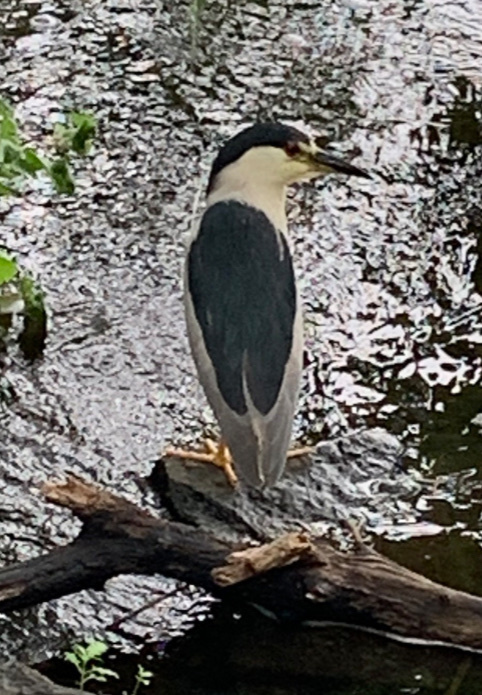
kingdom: Animalia
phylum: Chordata
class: Aves
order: Pelecaniformes
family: Ardeidae
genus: Nycticorax
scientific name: Nycticorax nycticorax
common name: Black-crowned night heron
